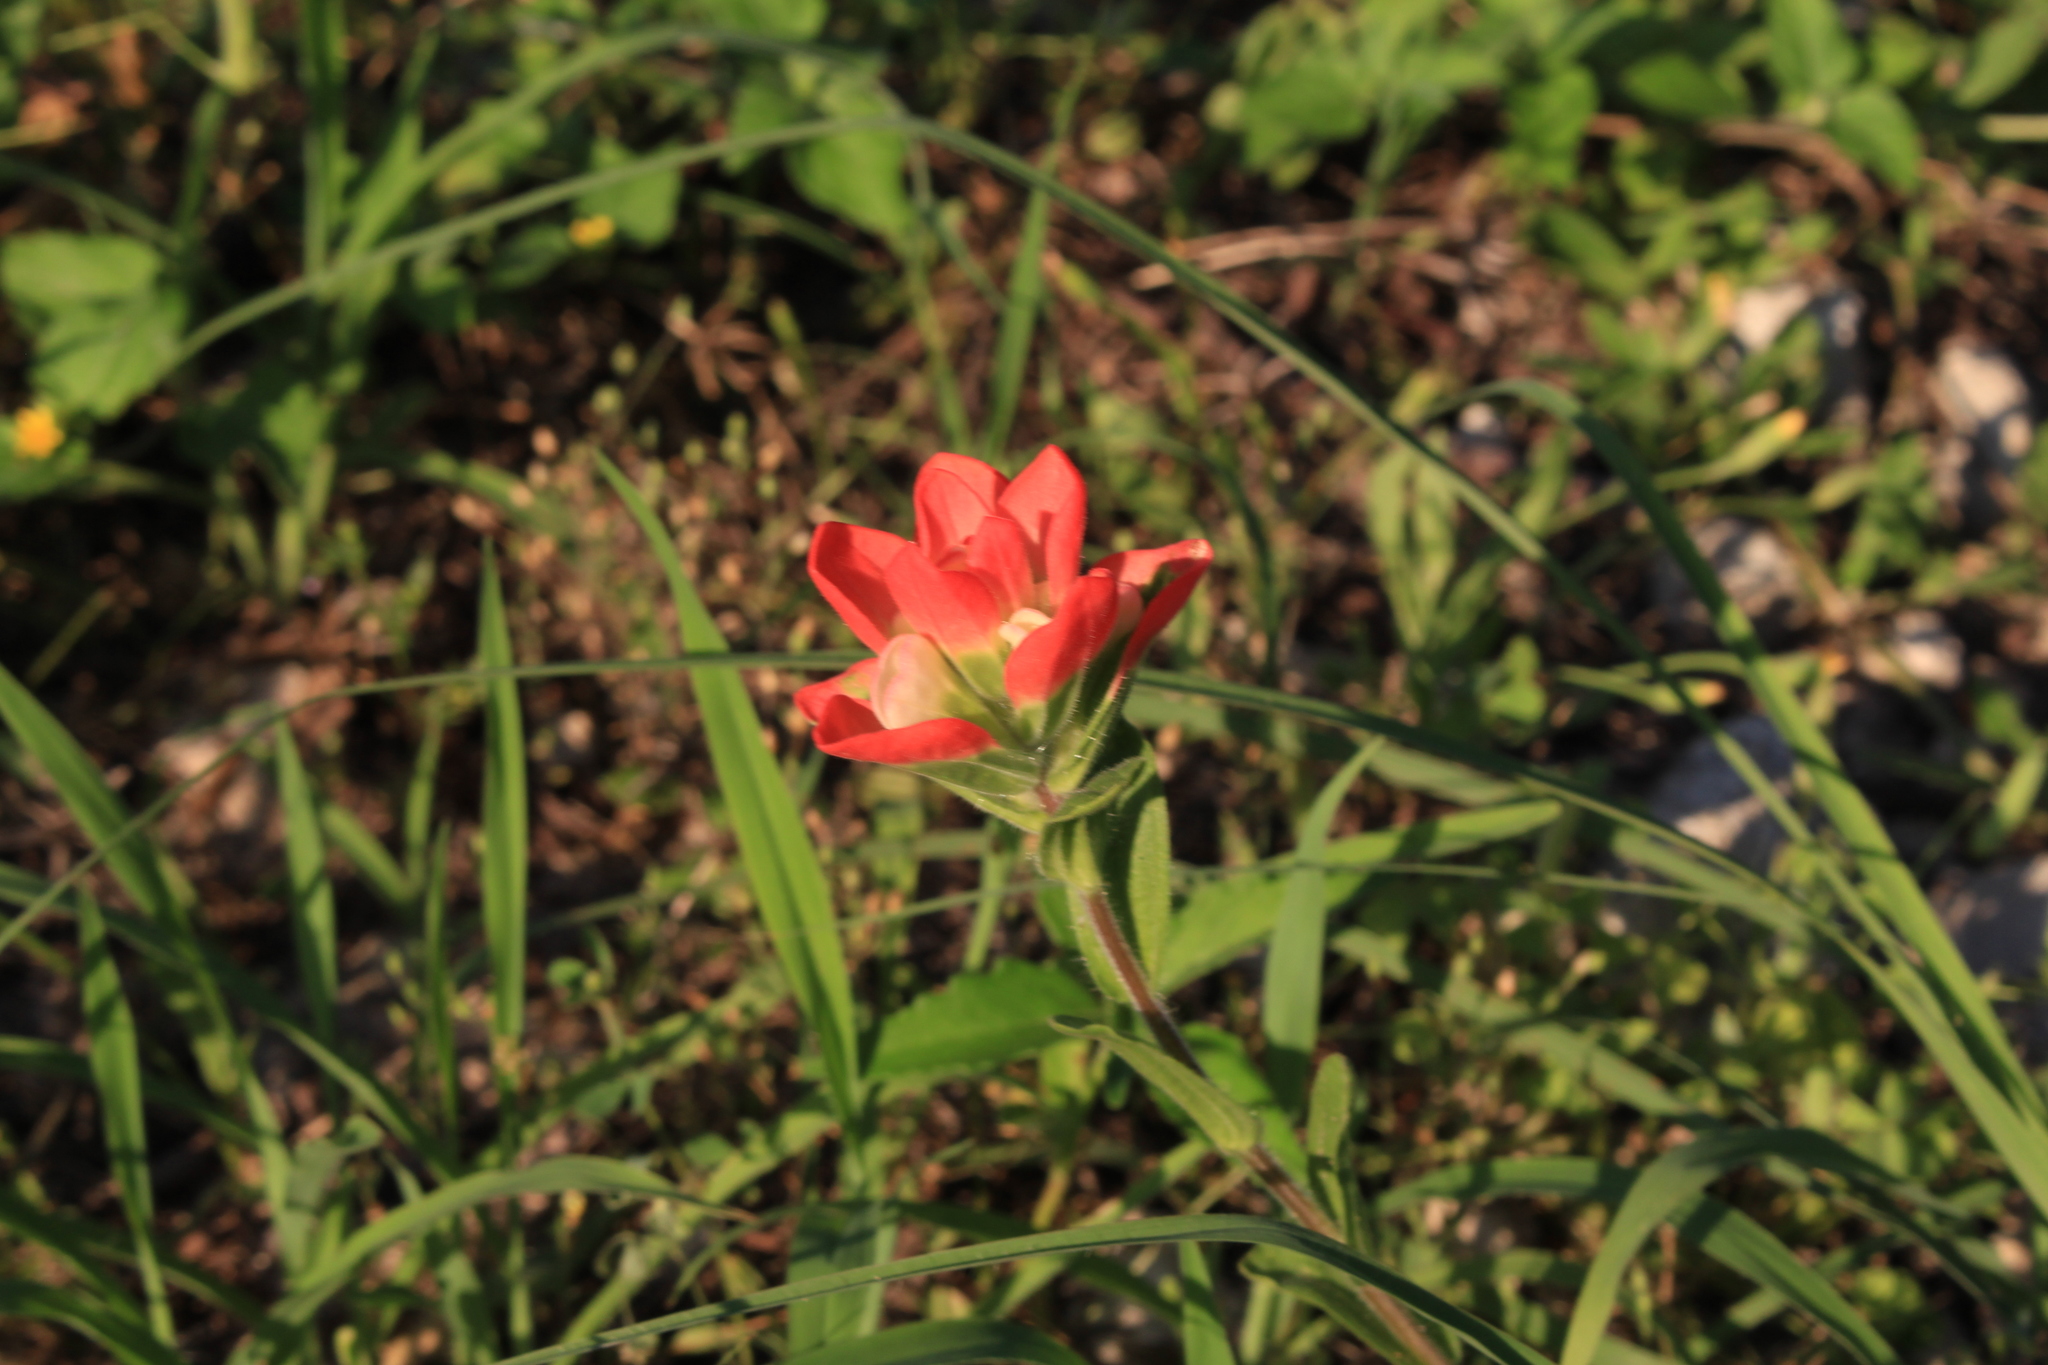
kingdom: Plantae
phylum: Tracheophyta
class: Magnoliopsida
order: Lamiales
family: Orobanchaceae
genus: Castilleja
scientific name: Castilleja indivisa
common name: Texas paintbrush
